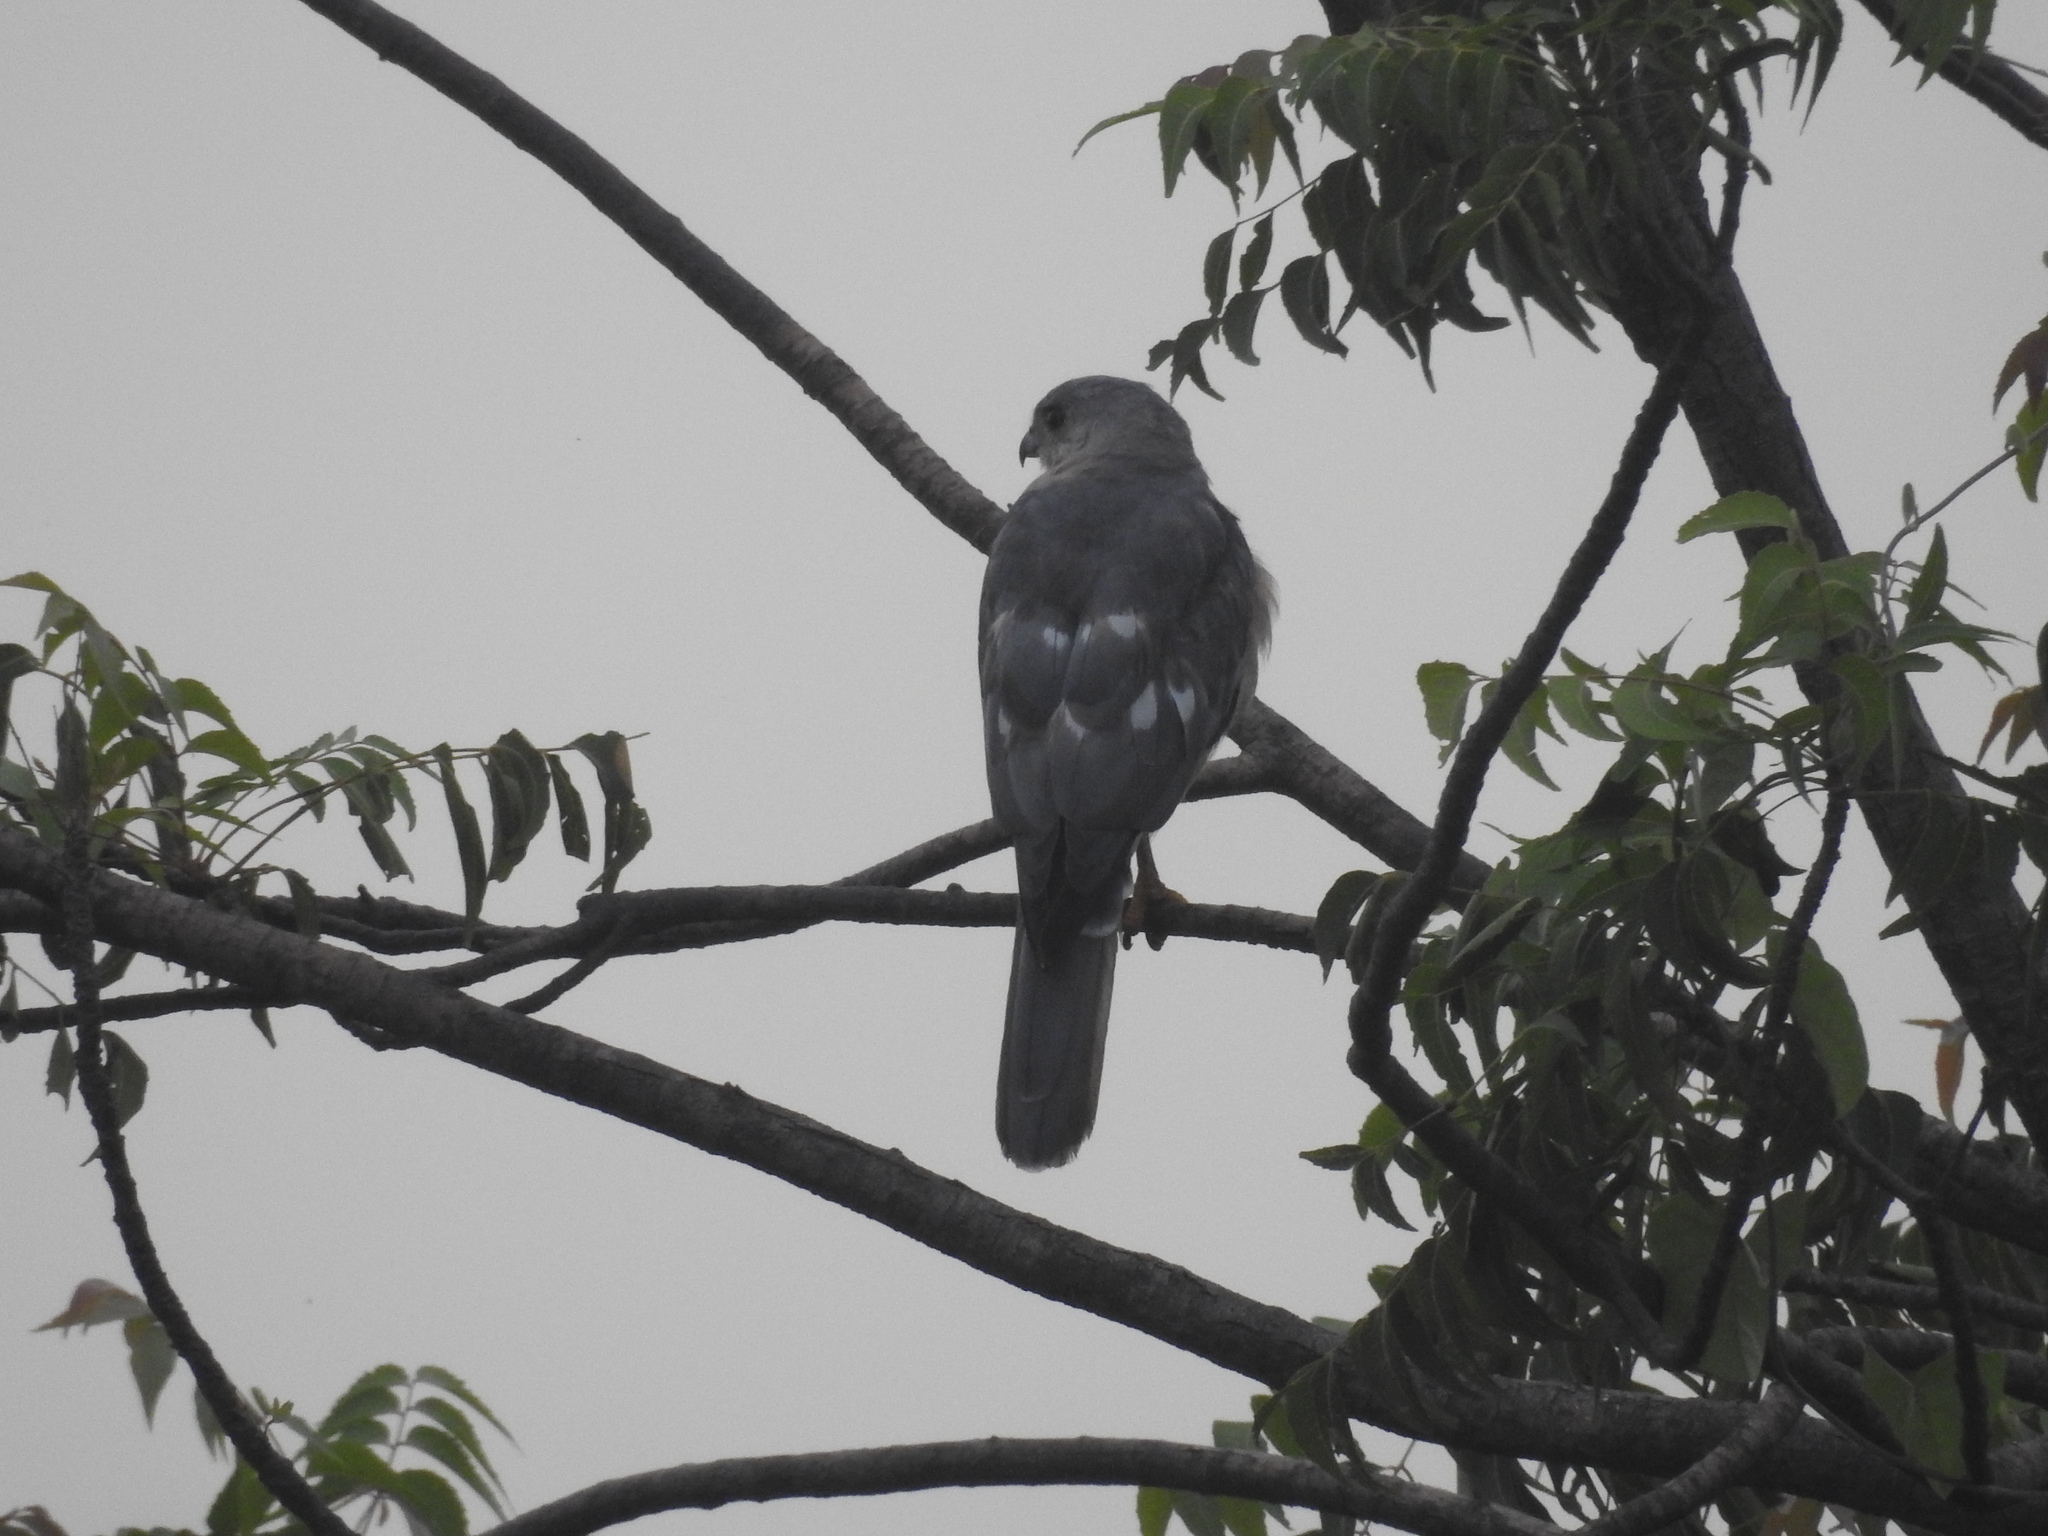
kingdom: Animalia
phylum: Chordata
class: Aves
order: Accipitriformes
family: Accipitridae
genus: Accipiter
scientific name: Accipiter badius
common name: Shikra
